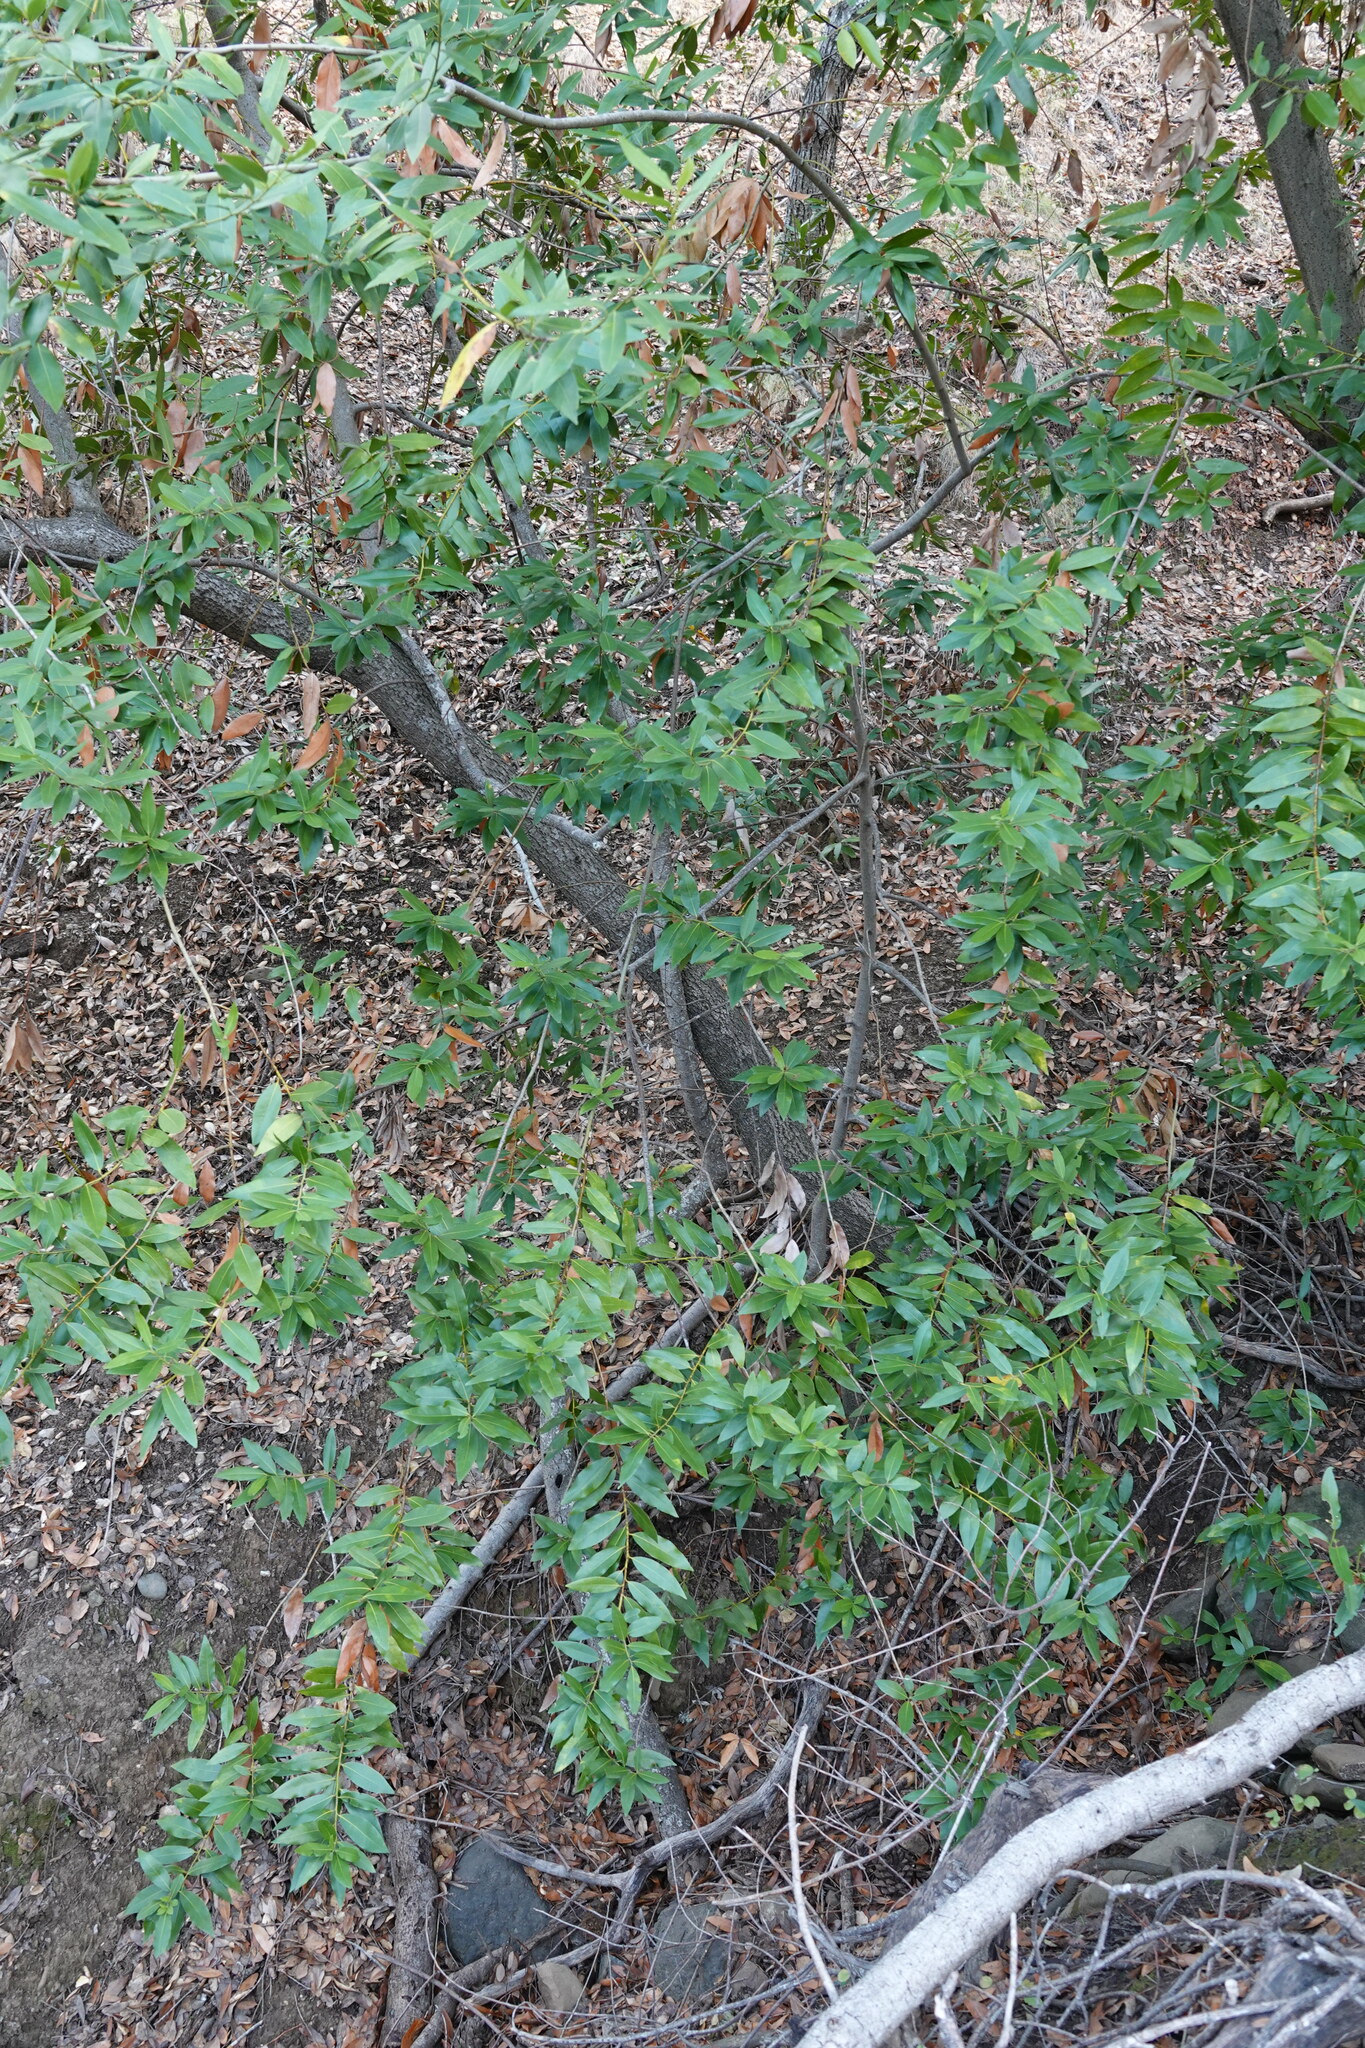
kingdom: Plantae
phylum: Tracheophyta
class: Magnoliopsida
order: Laurales
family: Lauraceae
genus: Umbellularia
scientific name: Umbellularia californica
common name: California bay
